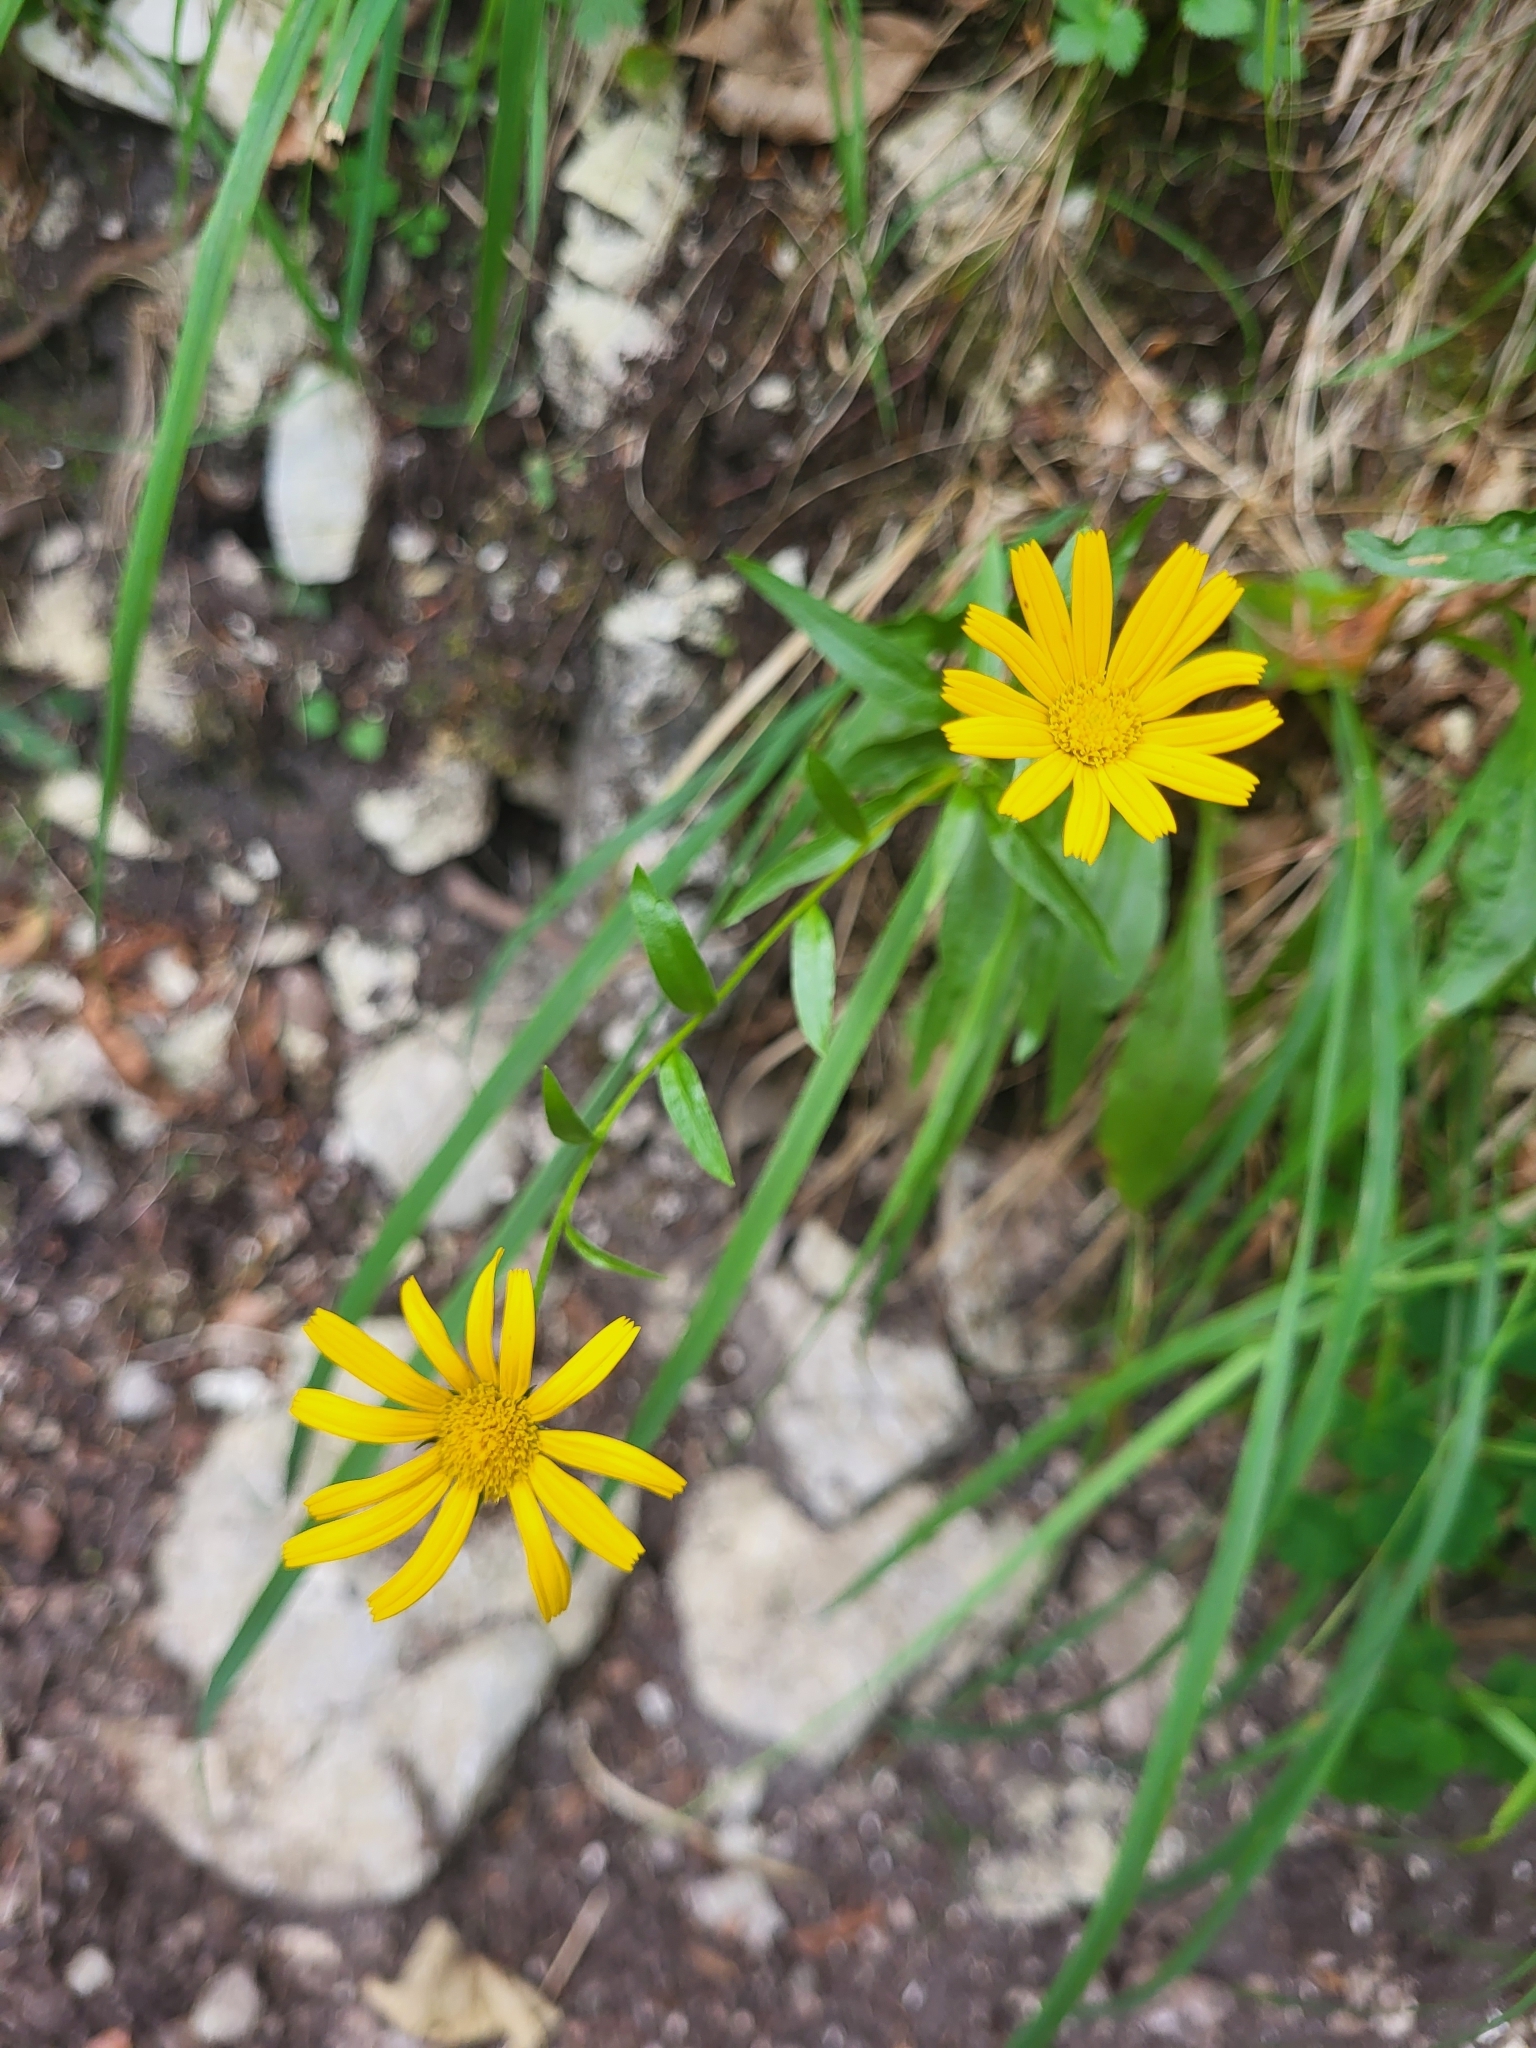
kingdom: Plantae
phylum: Tracheophyta
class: Magnoliopsida
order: Asterales
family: Asteraceae
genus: Buphthalmum
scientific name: Buphthalmum salicifolium
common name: Willow-leaved yellow-oxeye
